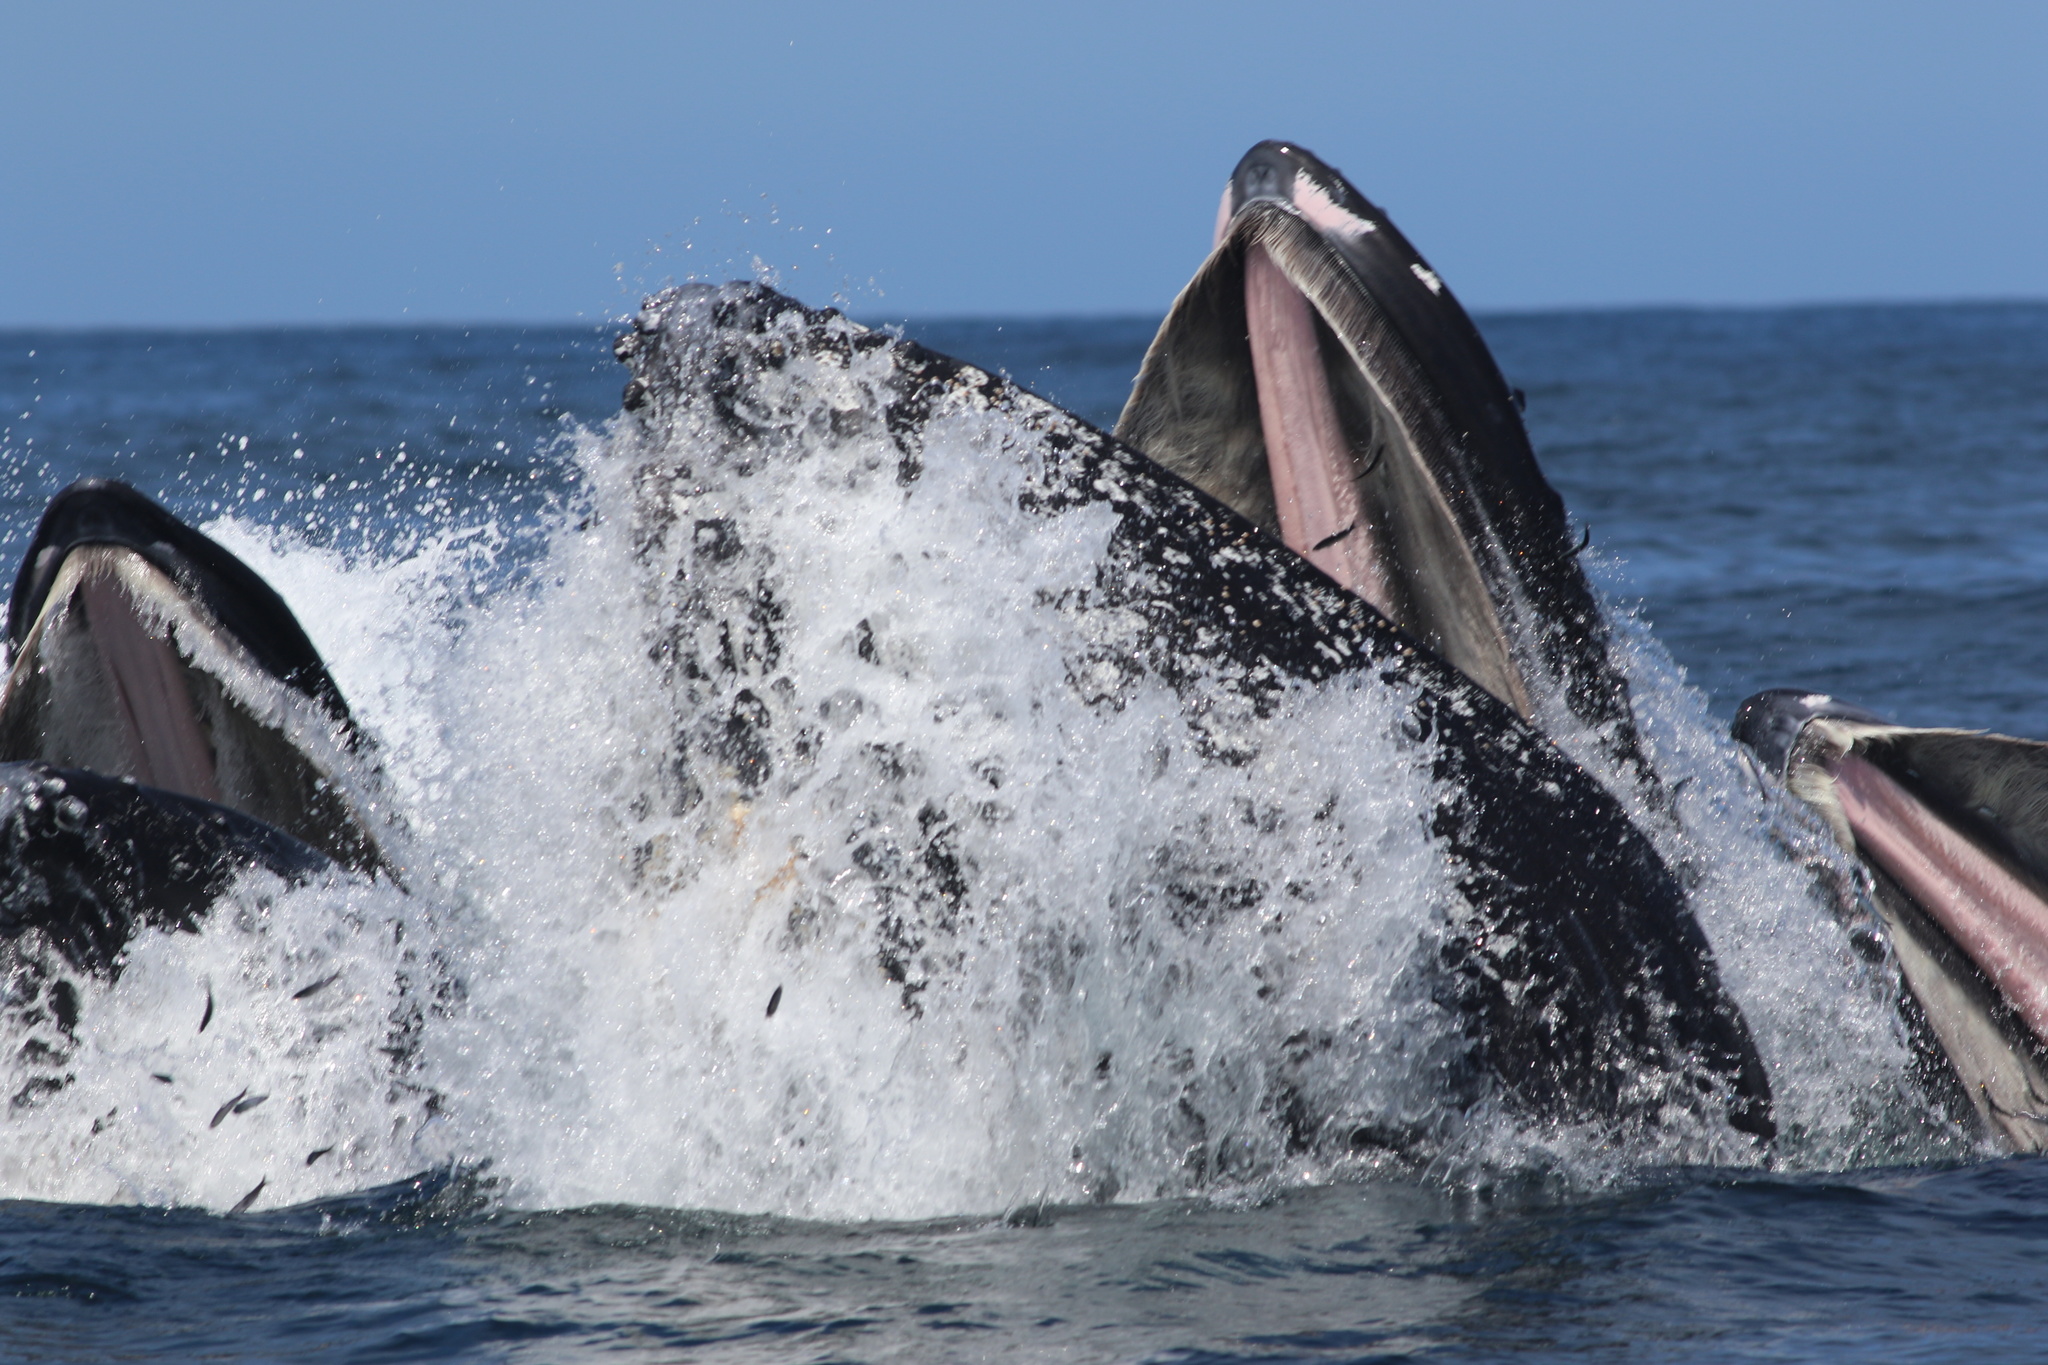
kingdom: Animalia
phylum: Chordata
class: Mammalia
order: Cetacea
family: Balaenopteridae
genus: Megaptera
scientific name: Megaptera novaeangliae
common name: Humpback whale
